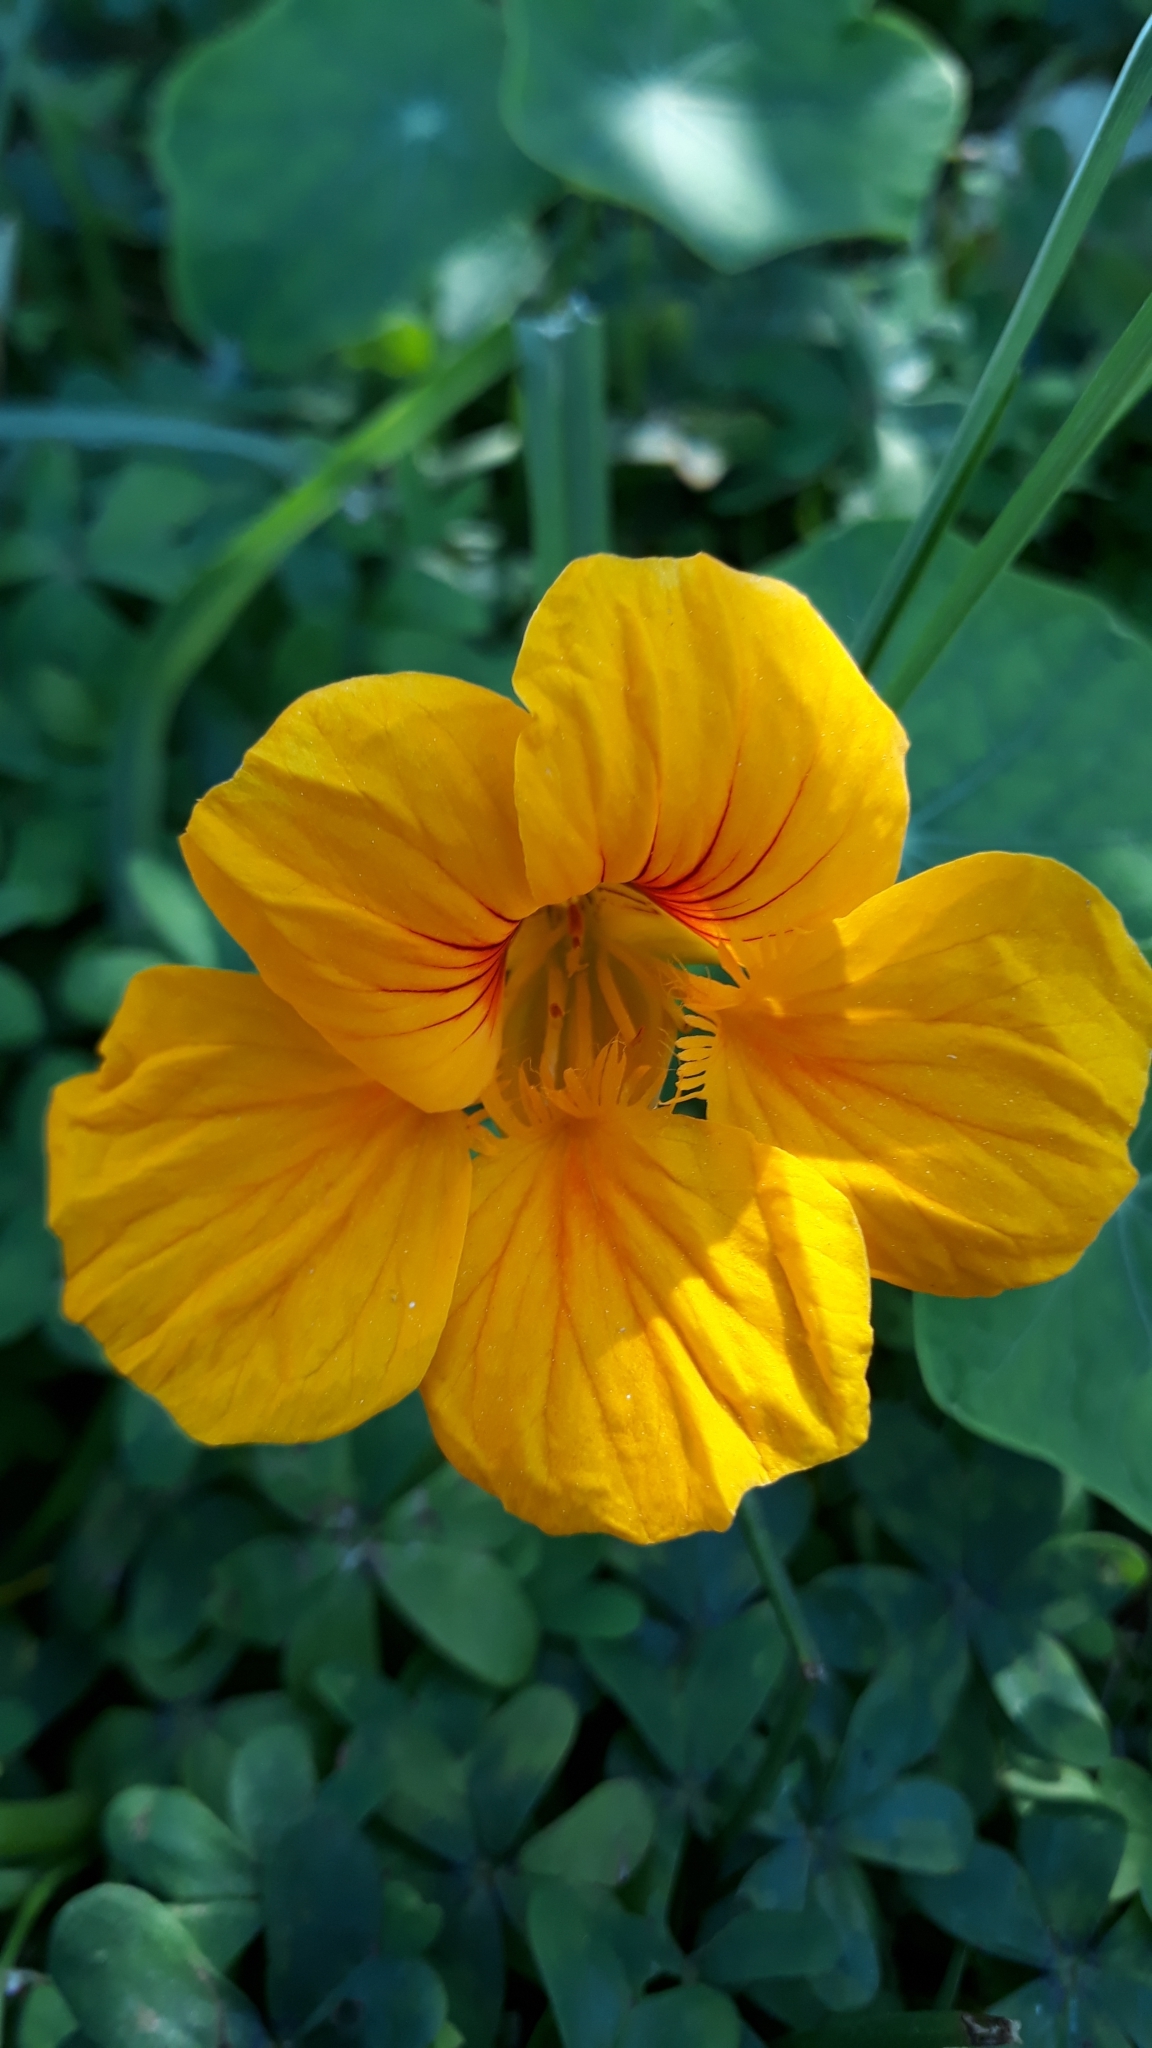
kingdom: Plantae
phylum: Tracheophyta
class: Magnoliopsida
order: Brassicales
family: Tropaeolaceae
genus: Tropaeolum
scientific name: Tropaeolum majus
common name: Nasturtium
